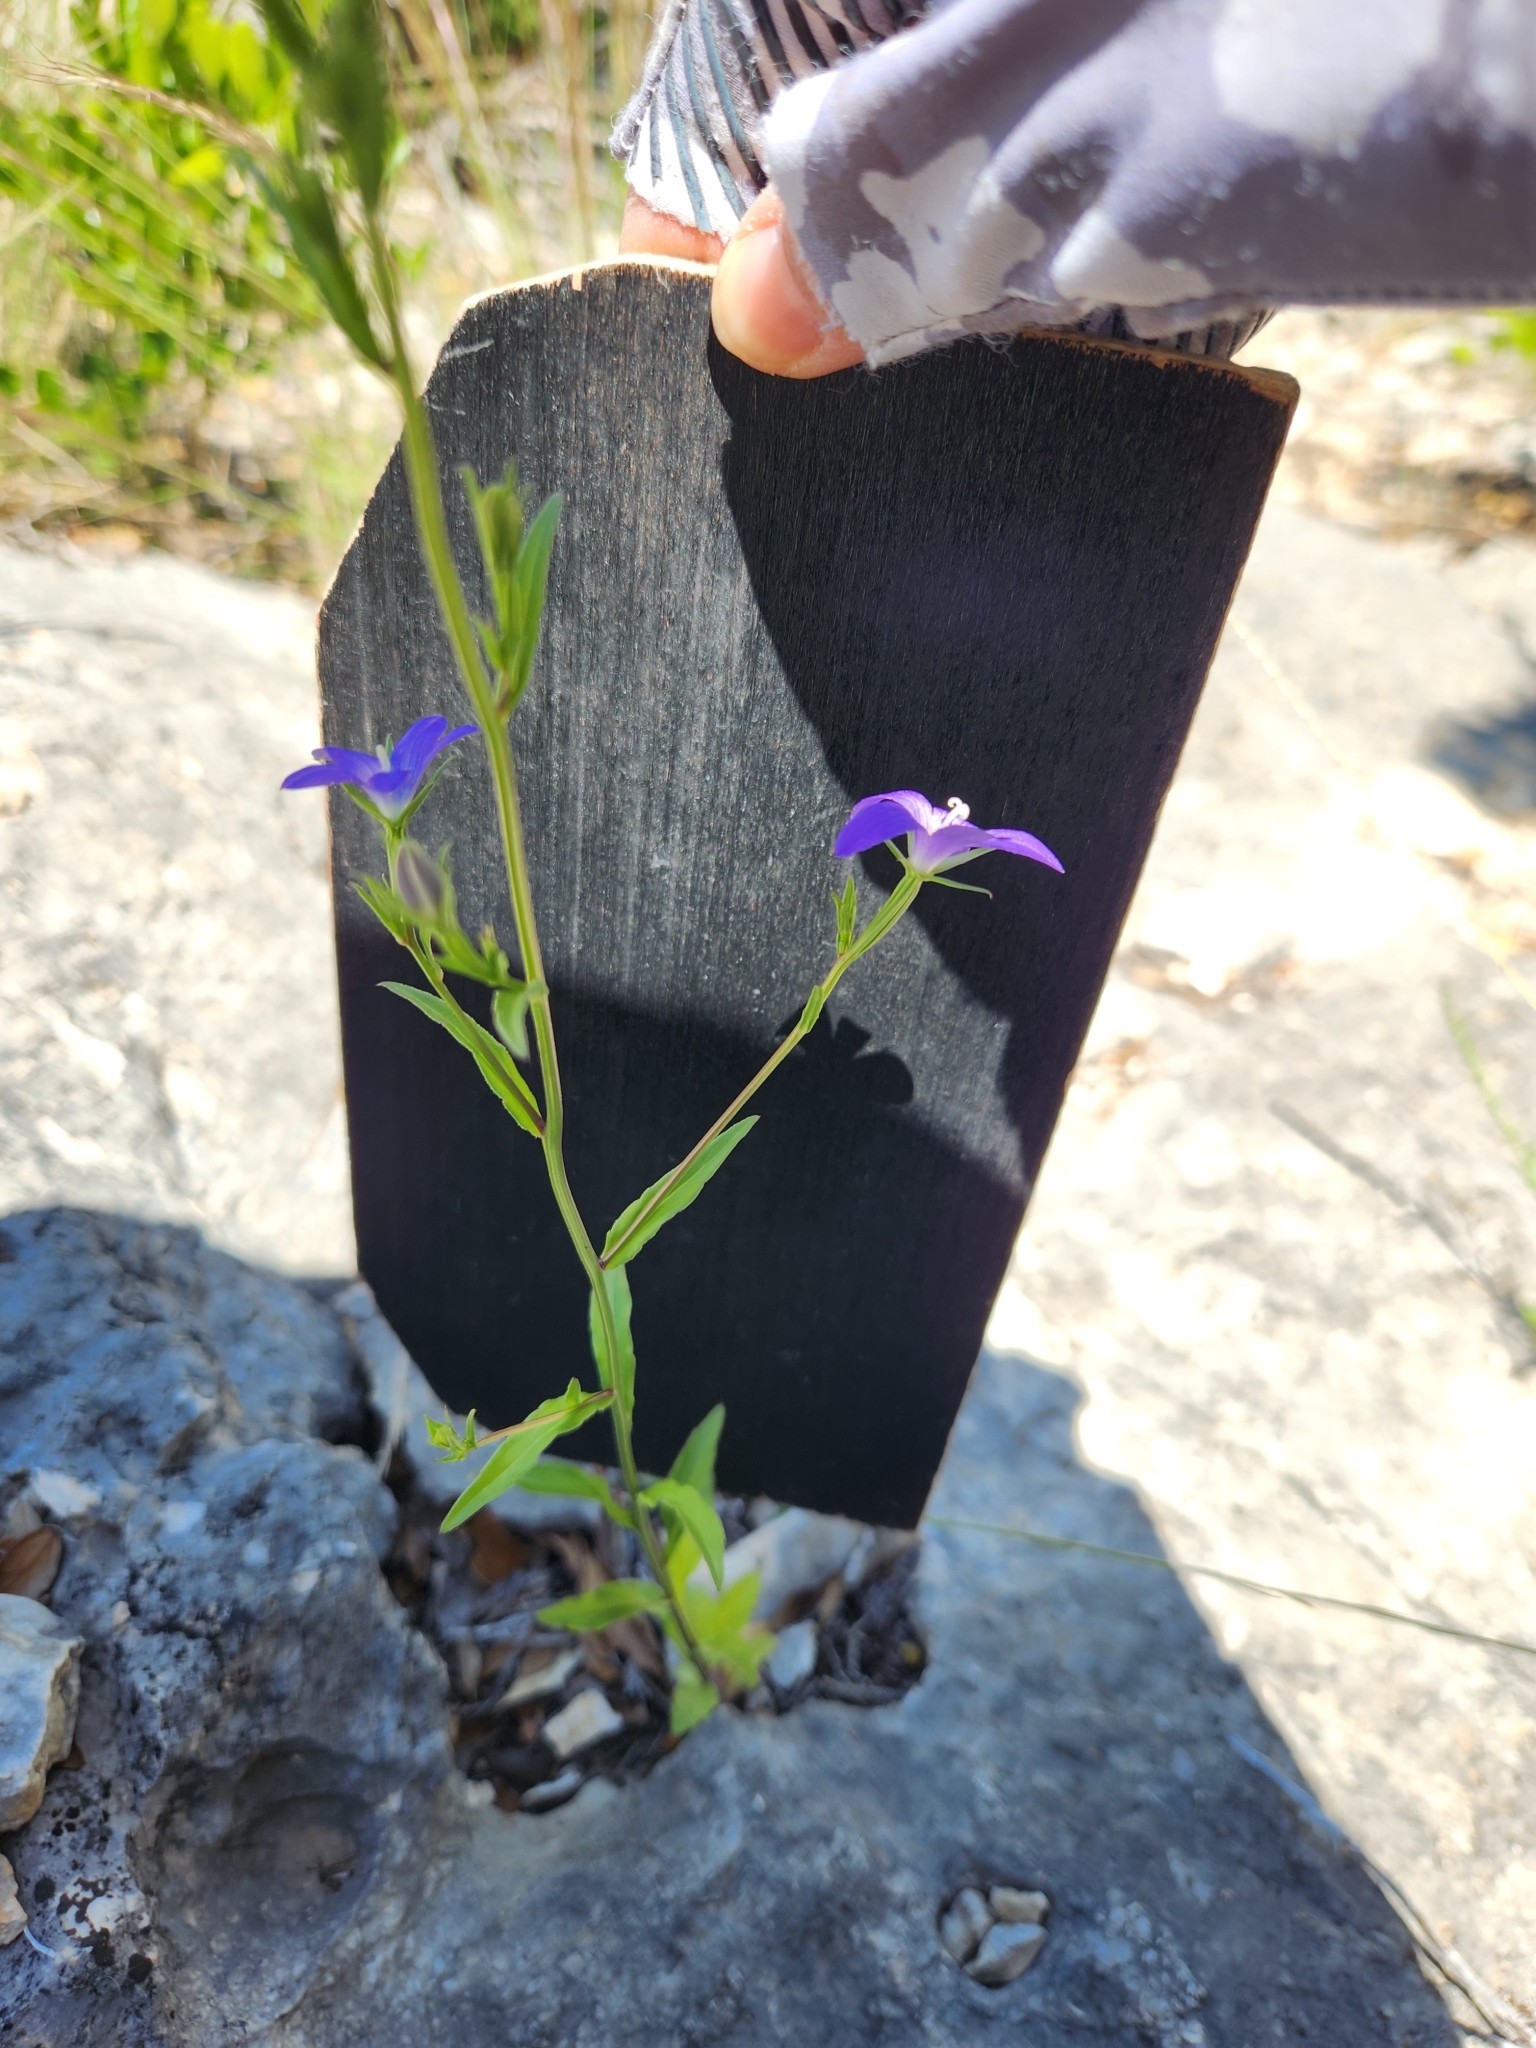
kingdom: Plantae
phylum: Tracheophyta
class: Magnoliopsida
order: Asterales
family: Campanulaceae
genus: Triodanis
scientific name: Triodanis coloradoensis
